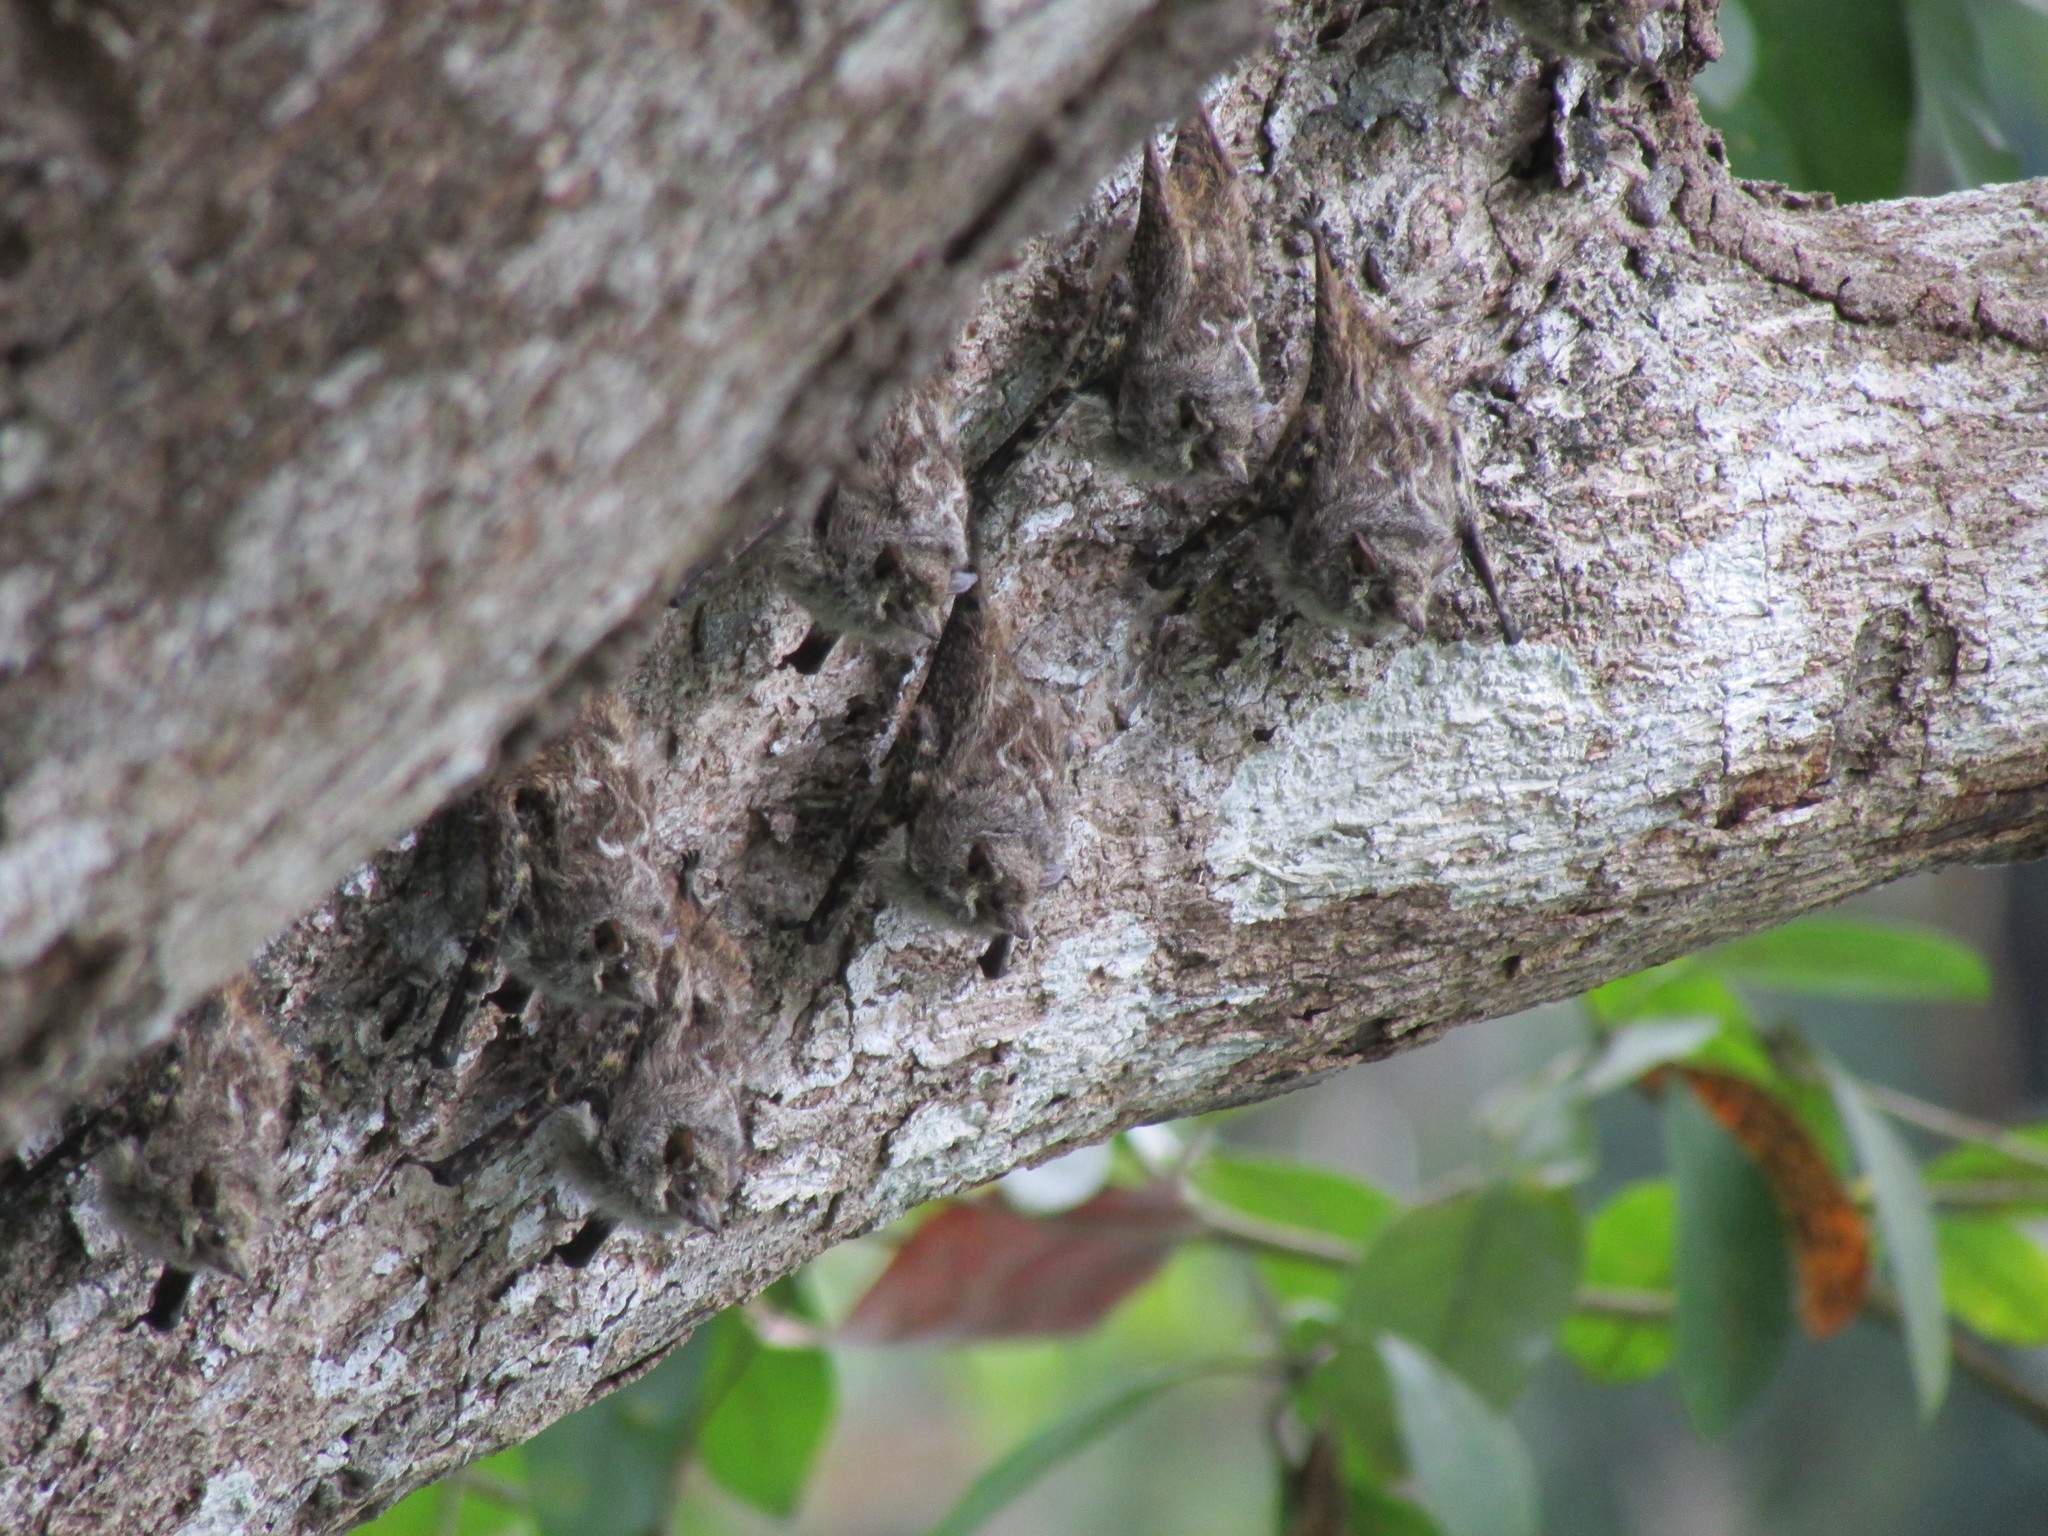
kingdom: Animalia
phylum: Chordata
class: Mammalia
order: Chiroptera
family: Emballonuridae
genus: Rhynchonycteris
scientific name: Rhynchonycteris naso
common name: Proboscis bat
